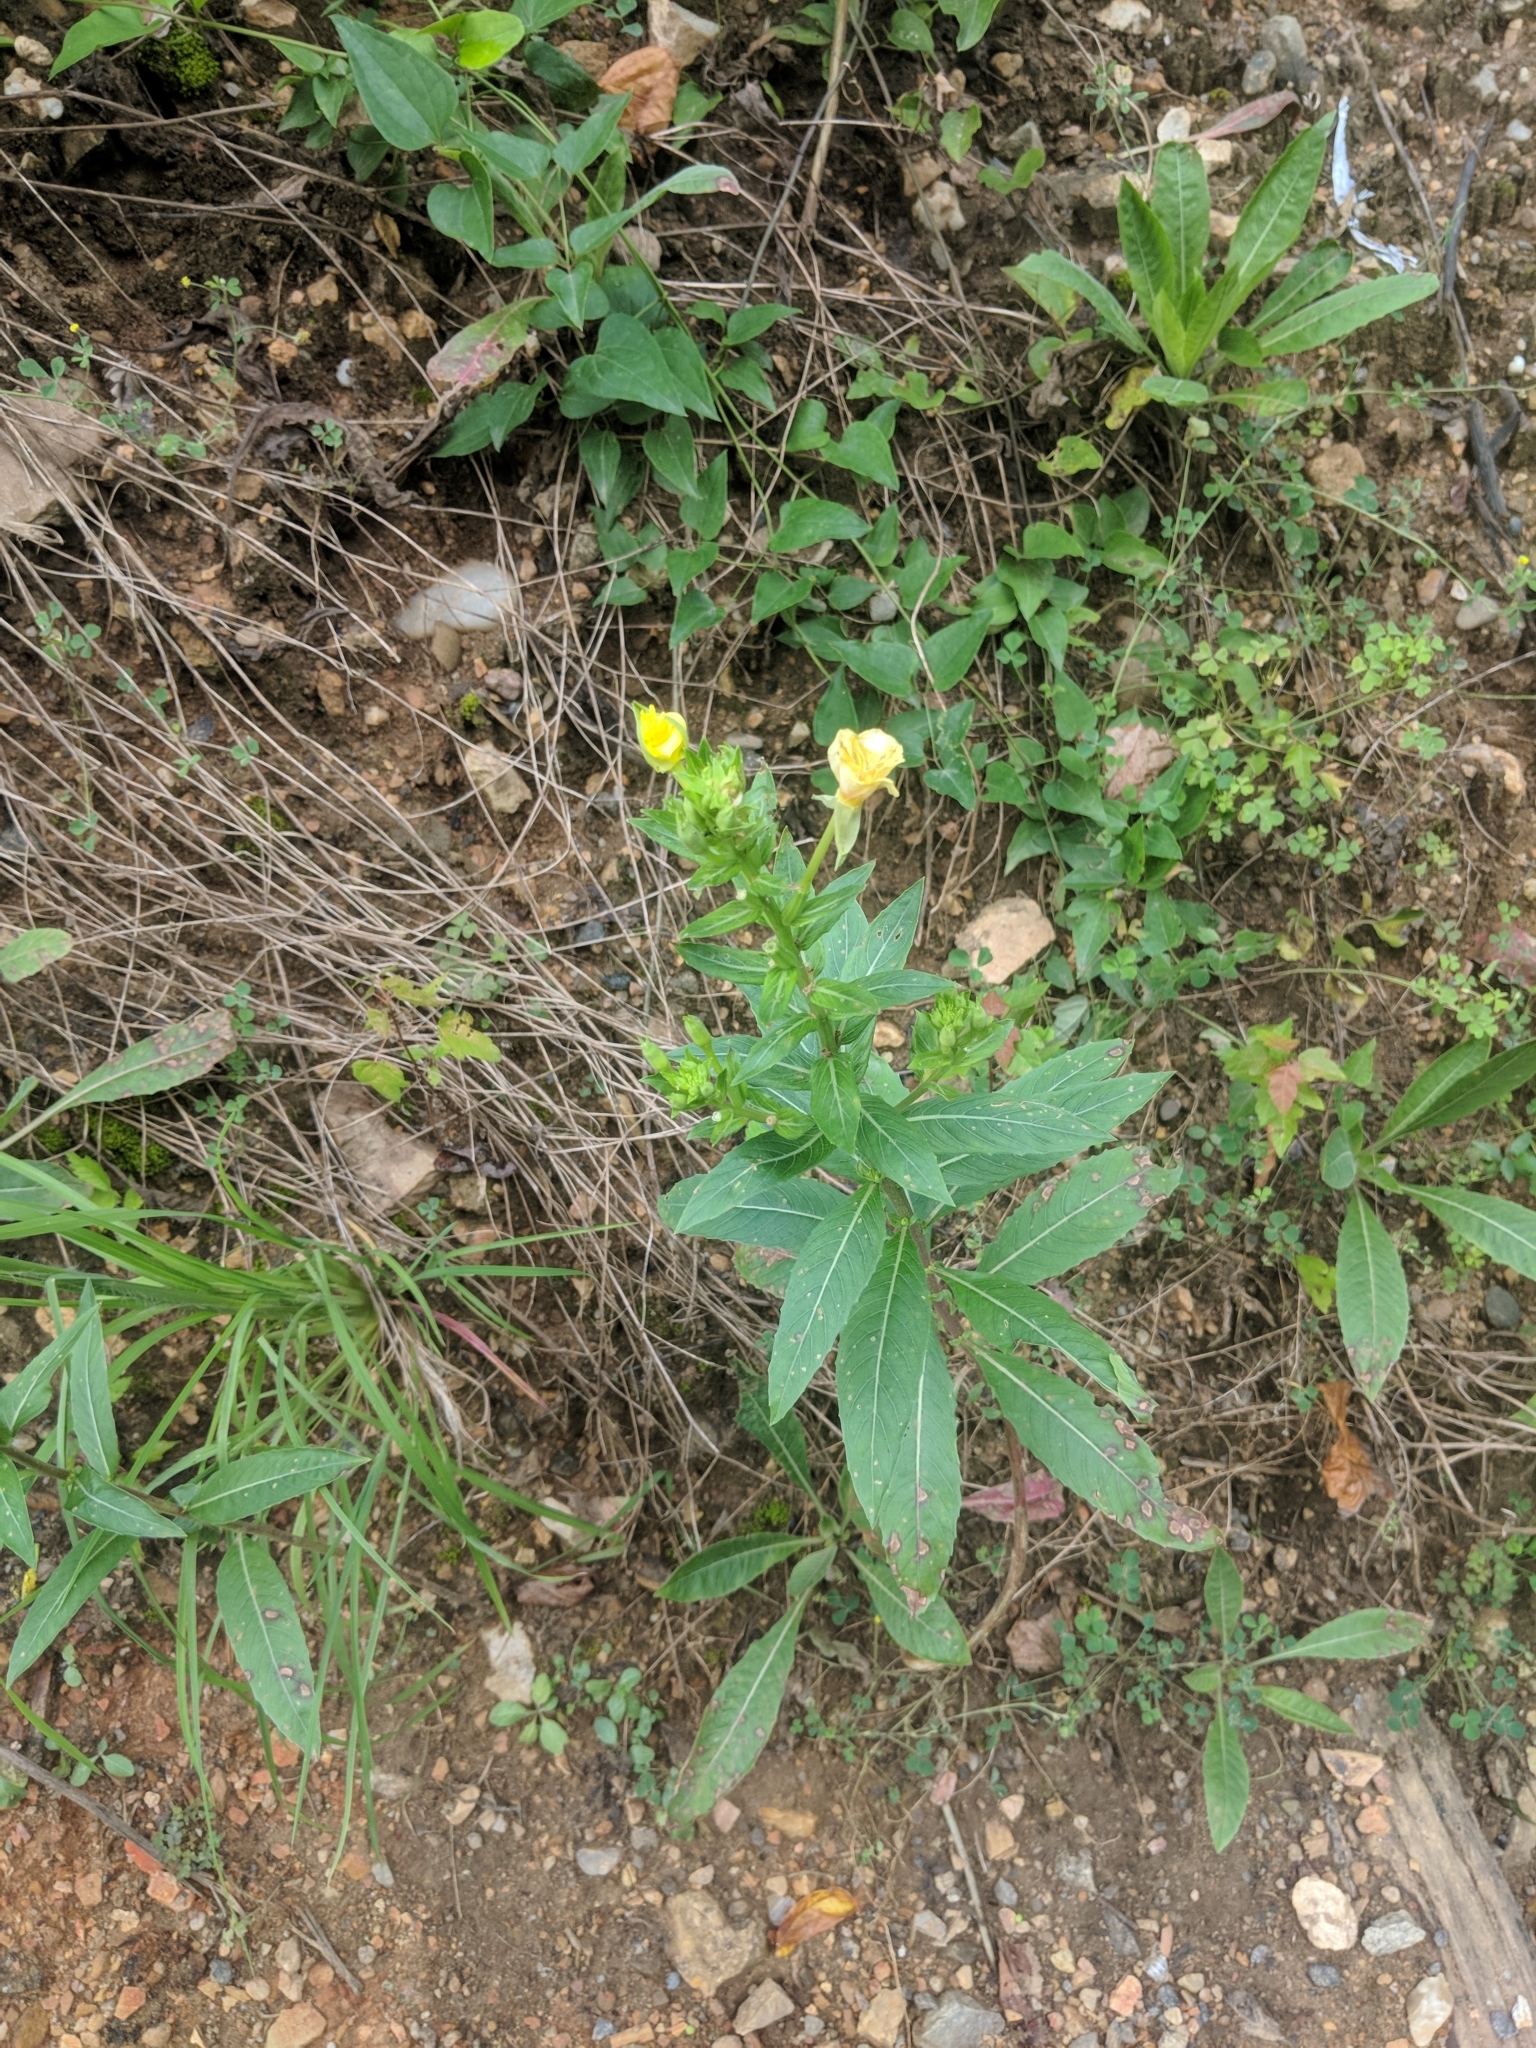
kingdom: Plantae
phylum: Tracheophyta
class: Magnoliopsida
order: Myrtales
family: Onagraceae
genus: Oenothera
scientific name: Oenothera biennis
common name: Common evening-primrose
